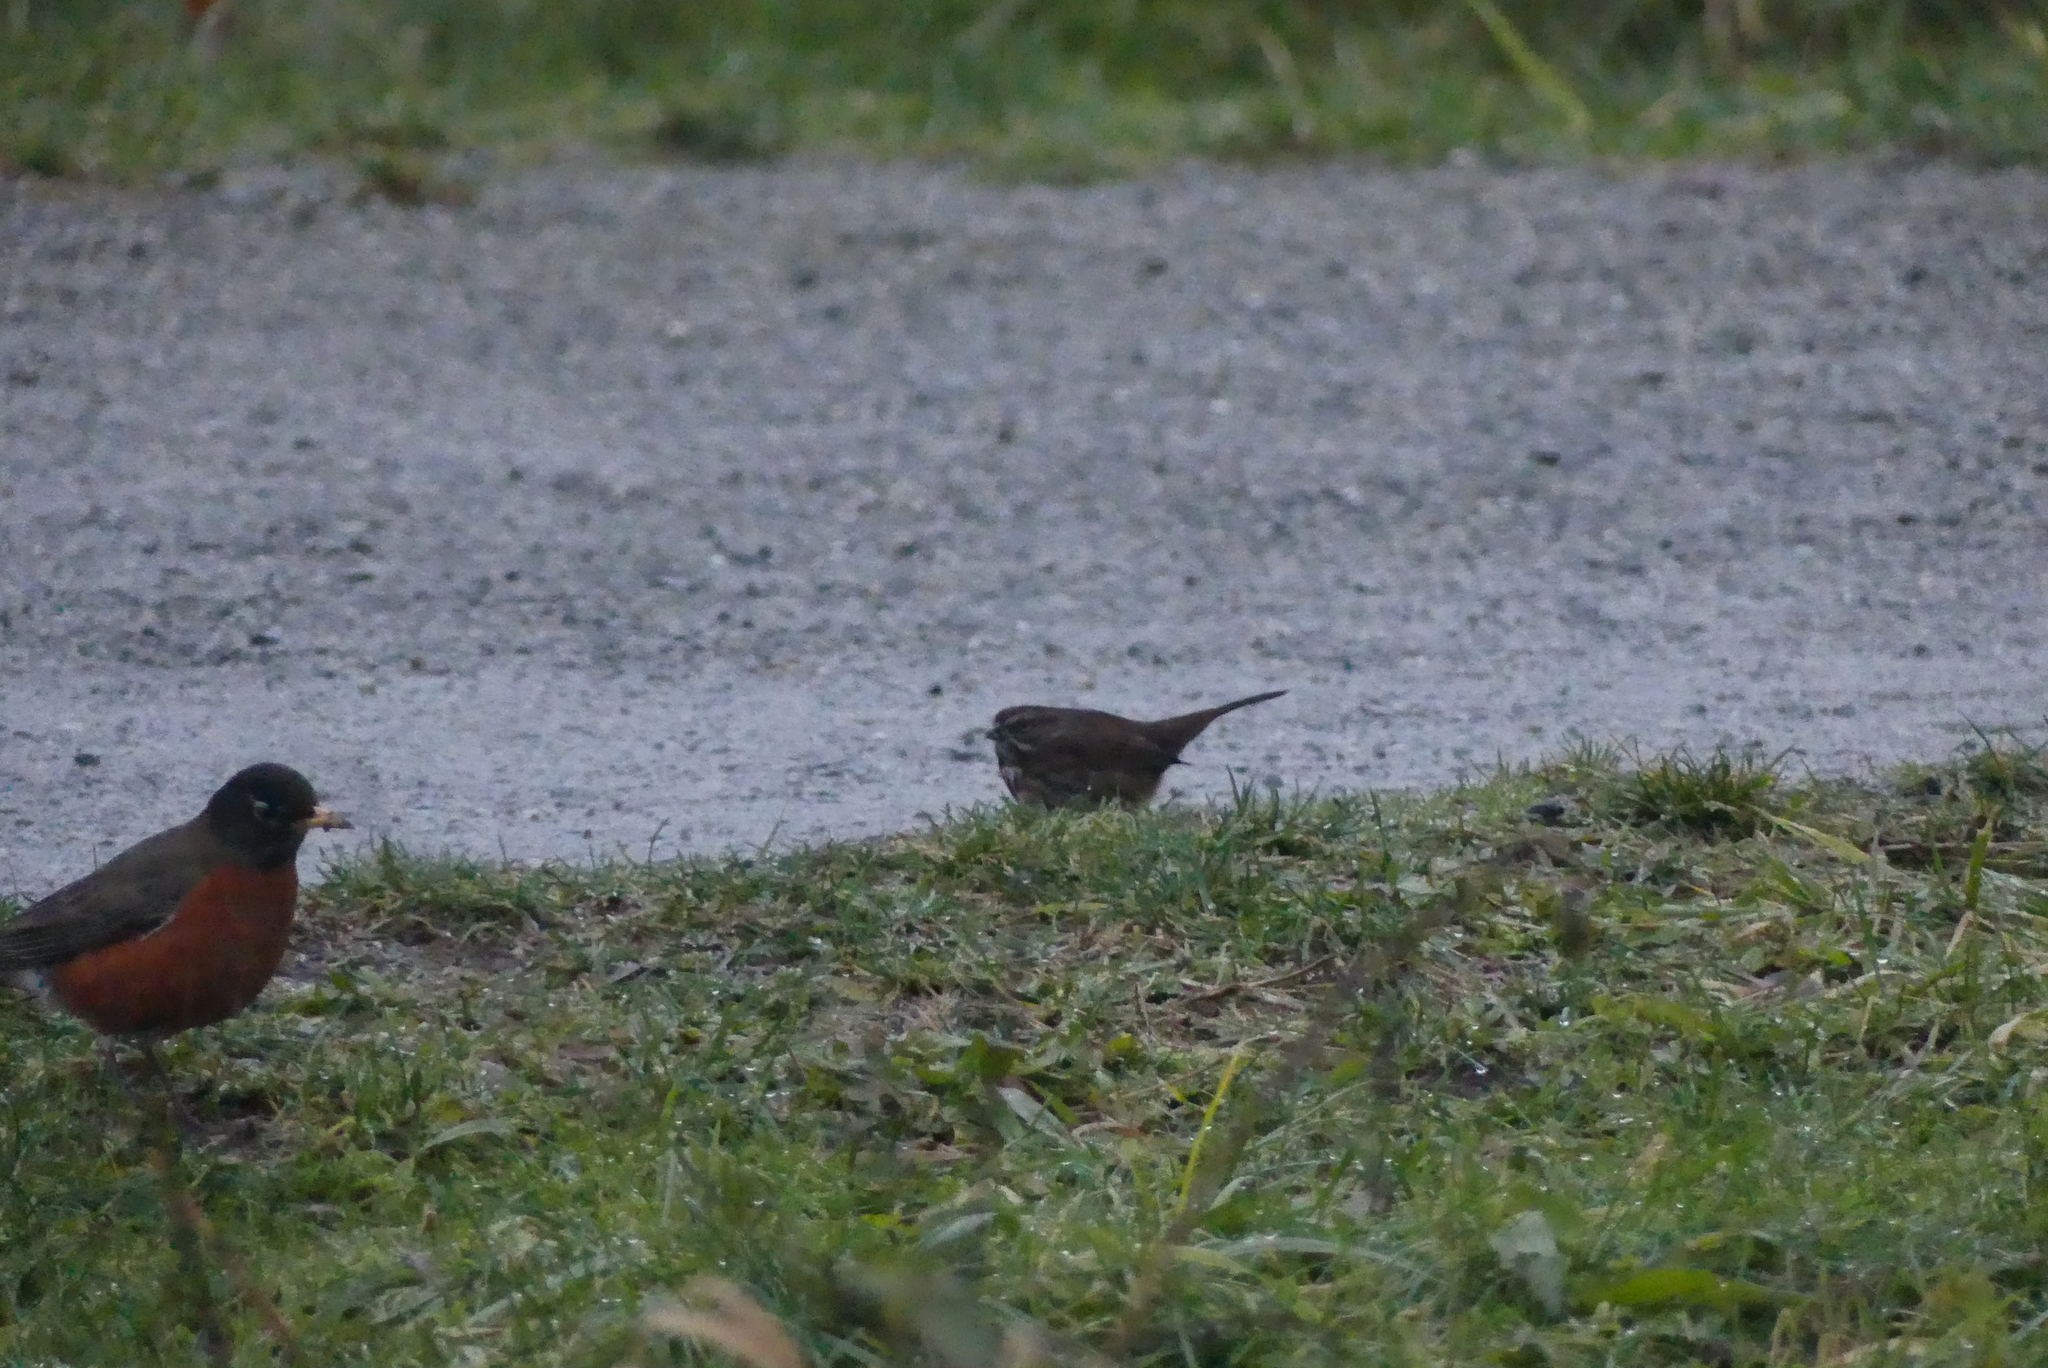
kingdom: Animalia
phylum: Chordata
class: Aves
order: Passeriformes
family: Passerellidae
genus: Melospiza
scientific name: Melospiza melodia
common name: Song sparrow
